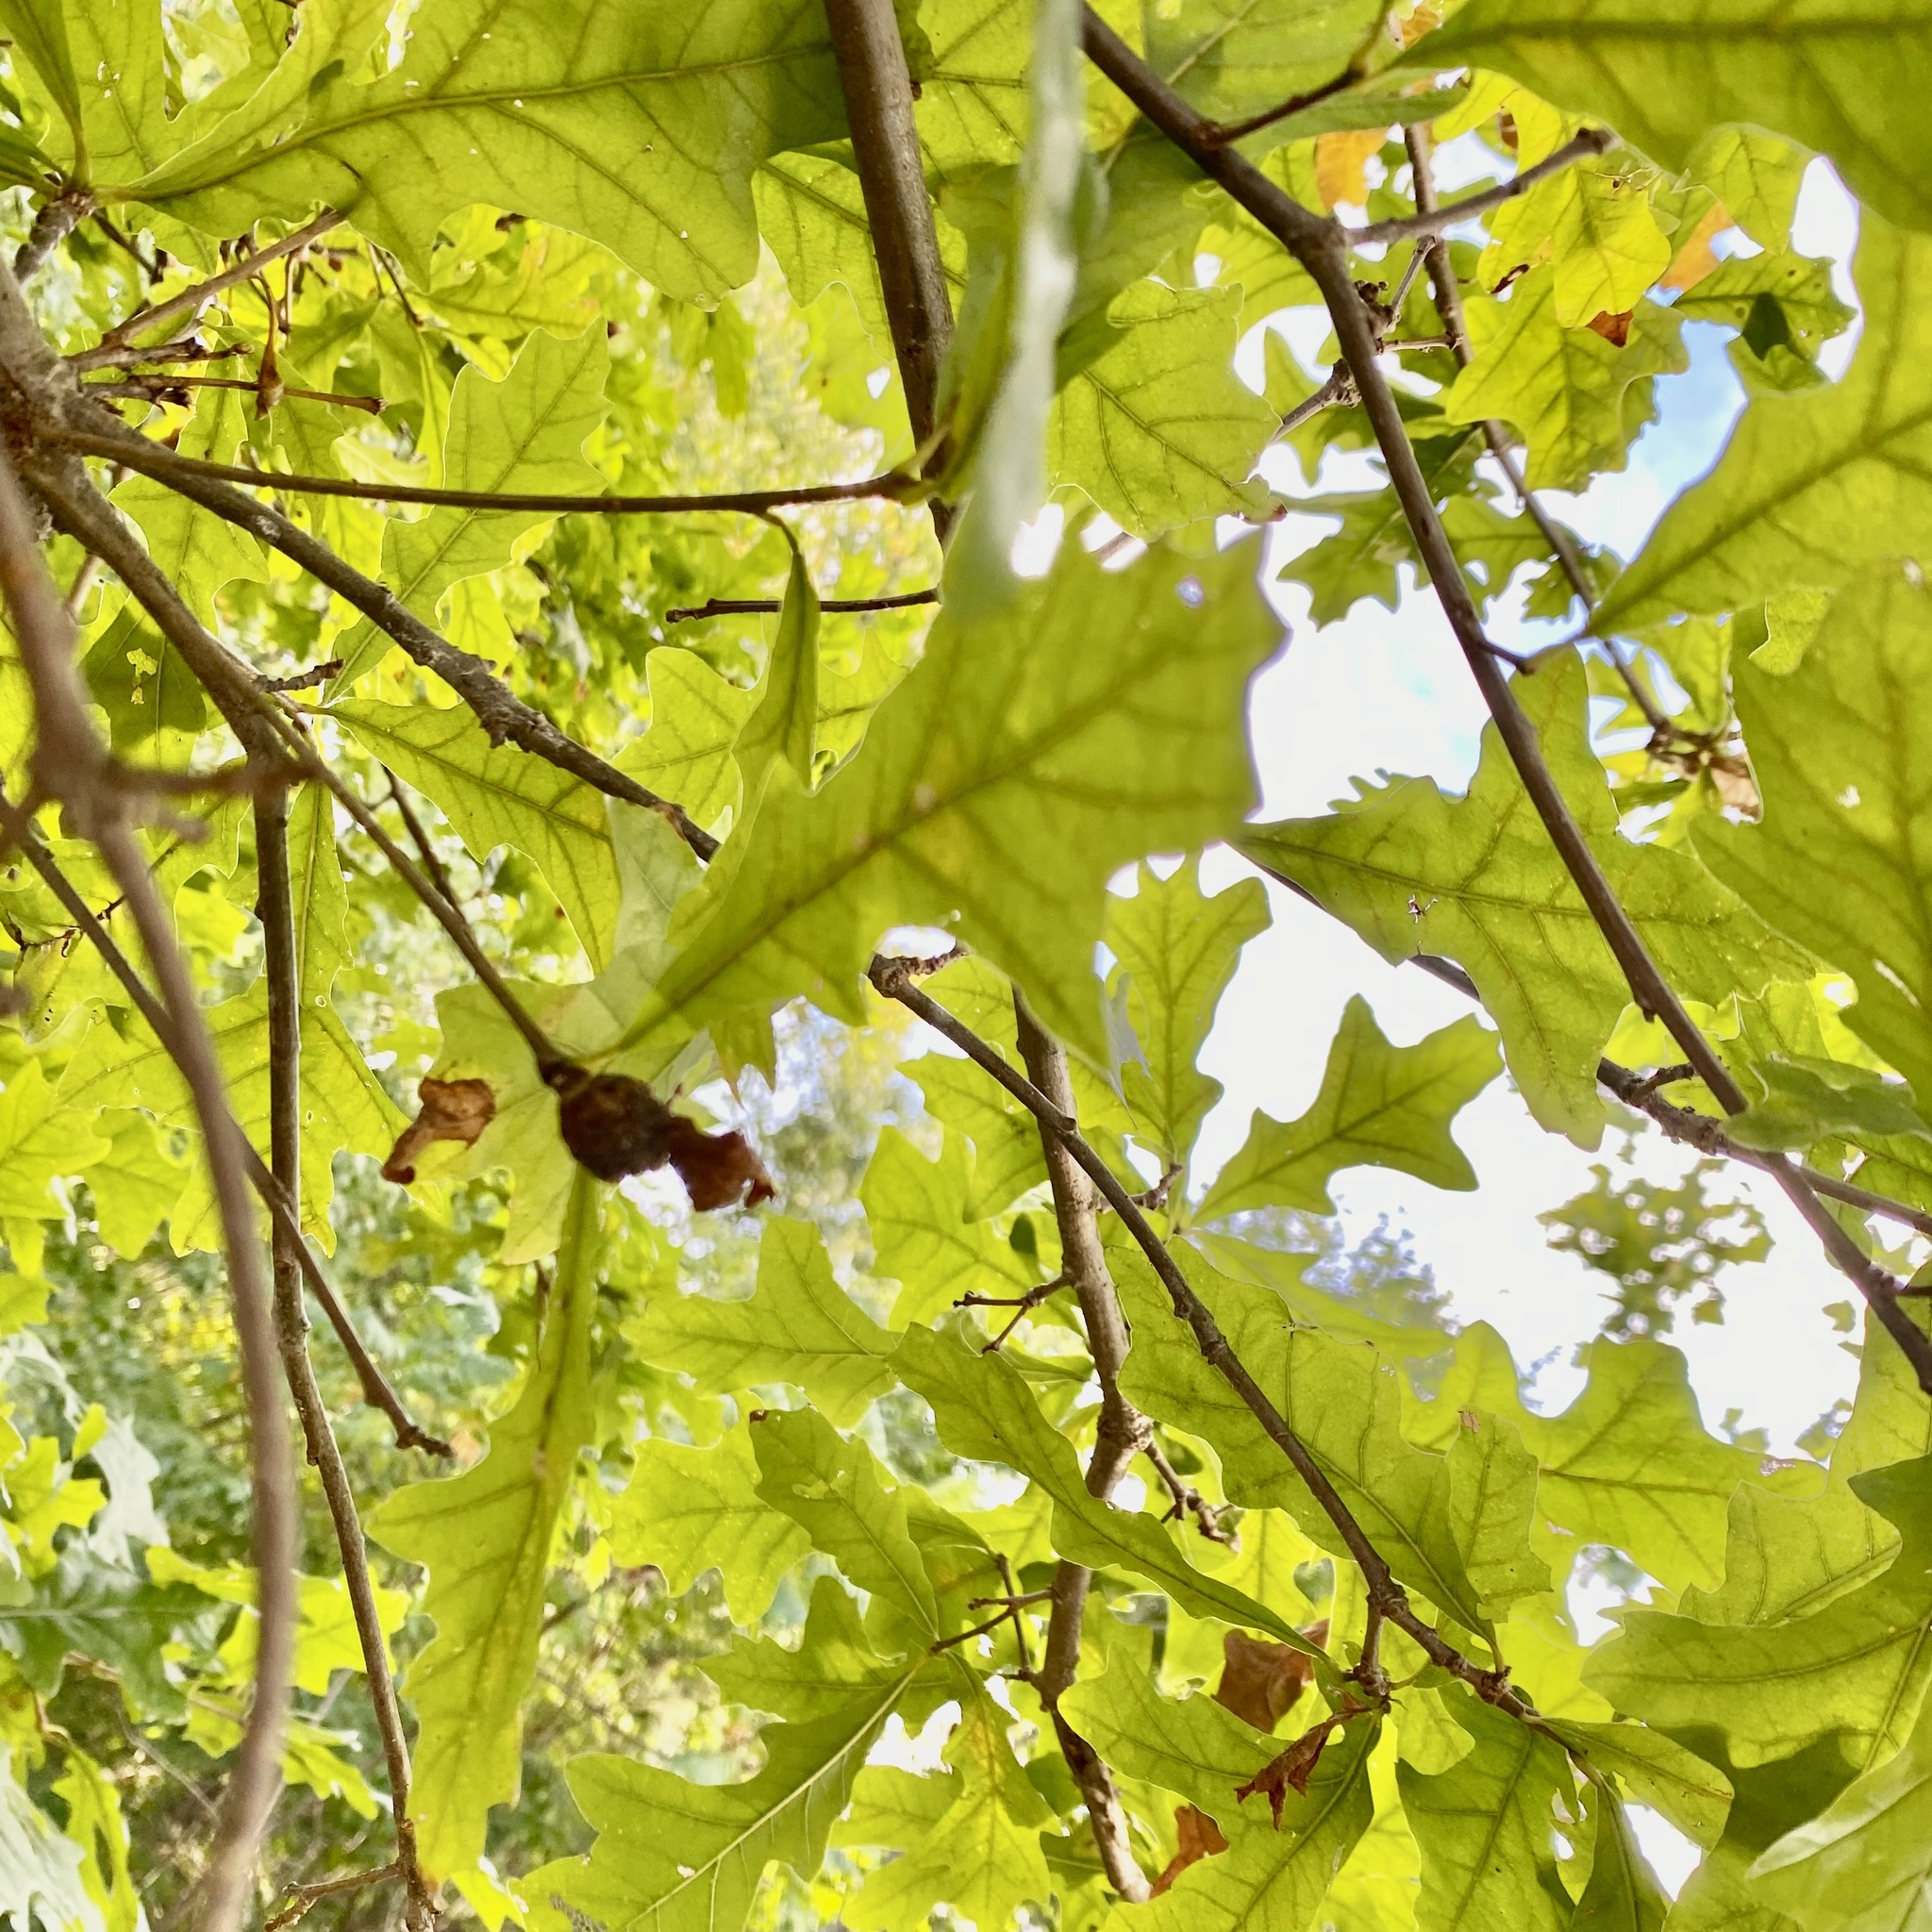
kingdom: Animalia
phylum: Arthropoda
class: Insecta
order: Hymenoptera
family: Cynipidae
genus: Andricus
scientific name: Andricus
